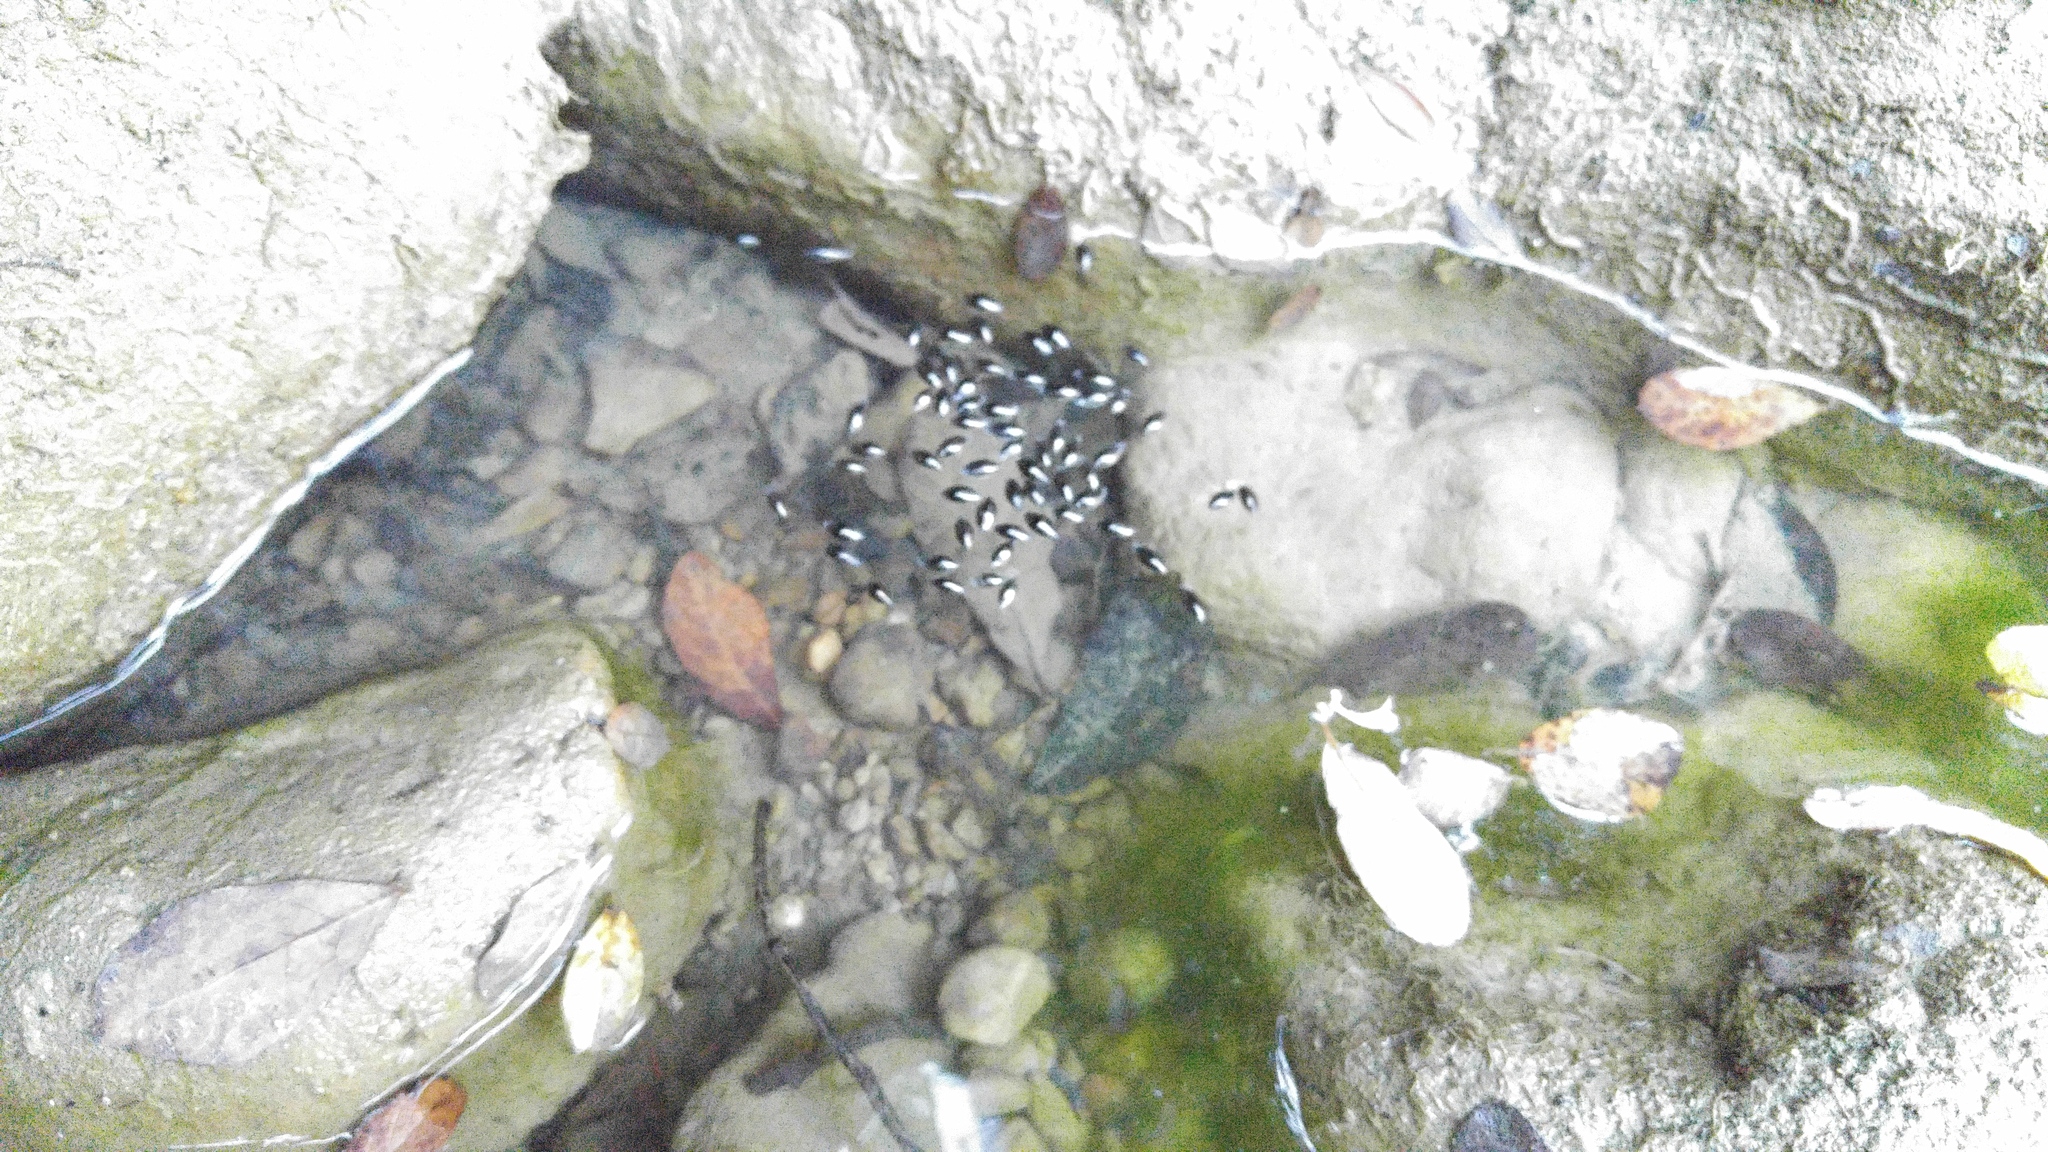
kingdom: Animalia
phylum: Arthropoda
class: Insecta
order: Coleoptera
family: Gyrinidae
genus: Gyrinus
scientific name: Gyrinus
